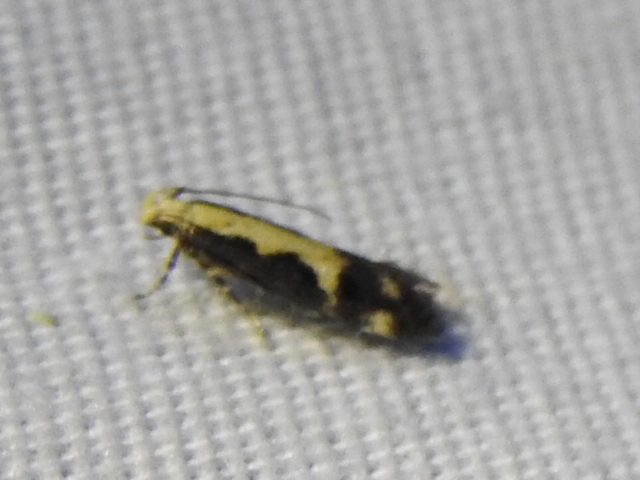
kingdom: Animalia
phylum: Arthropoda
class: Insecta
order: Lepidoptera
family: Gelechiidae
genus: Chionodes
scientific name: Chionodes dentella
